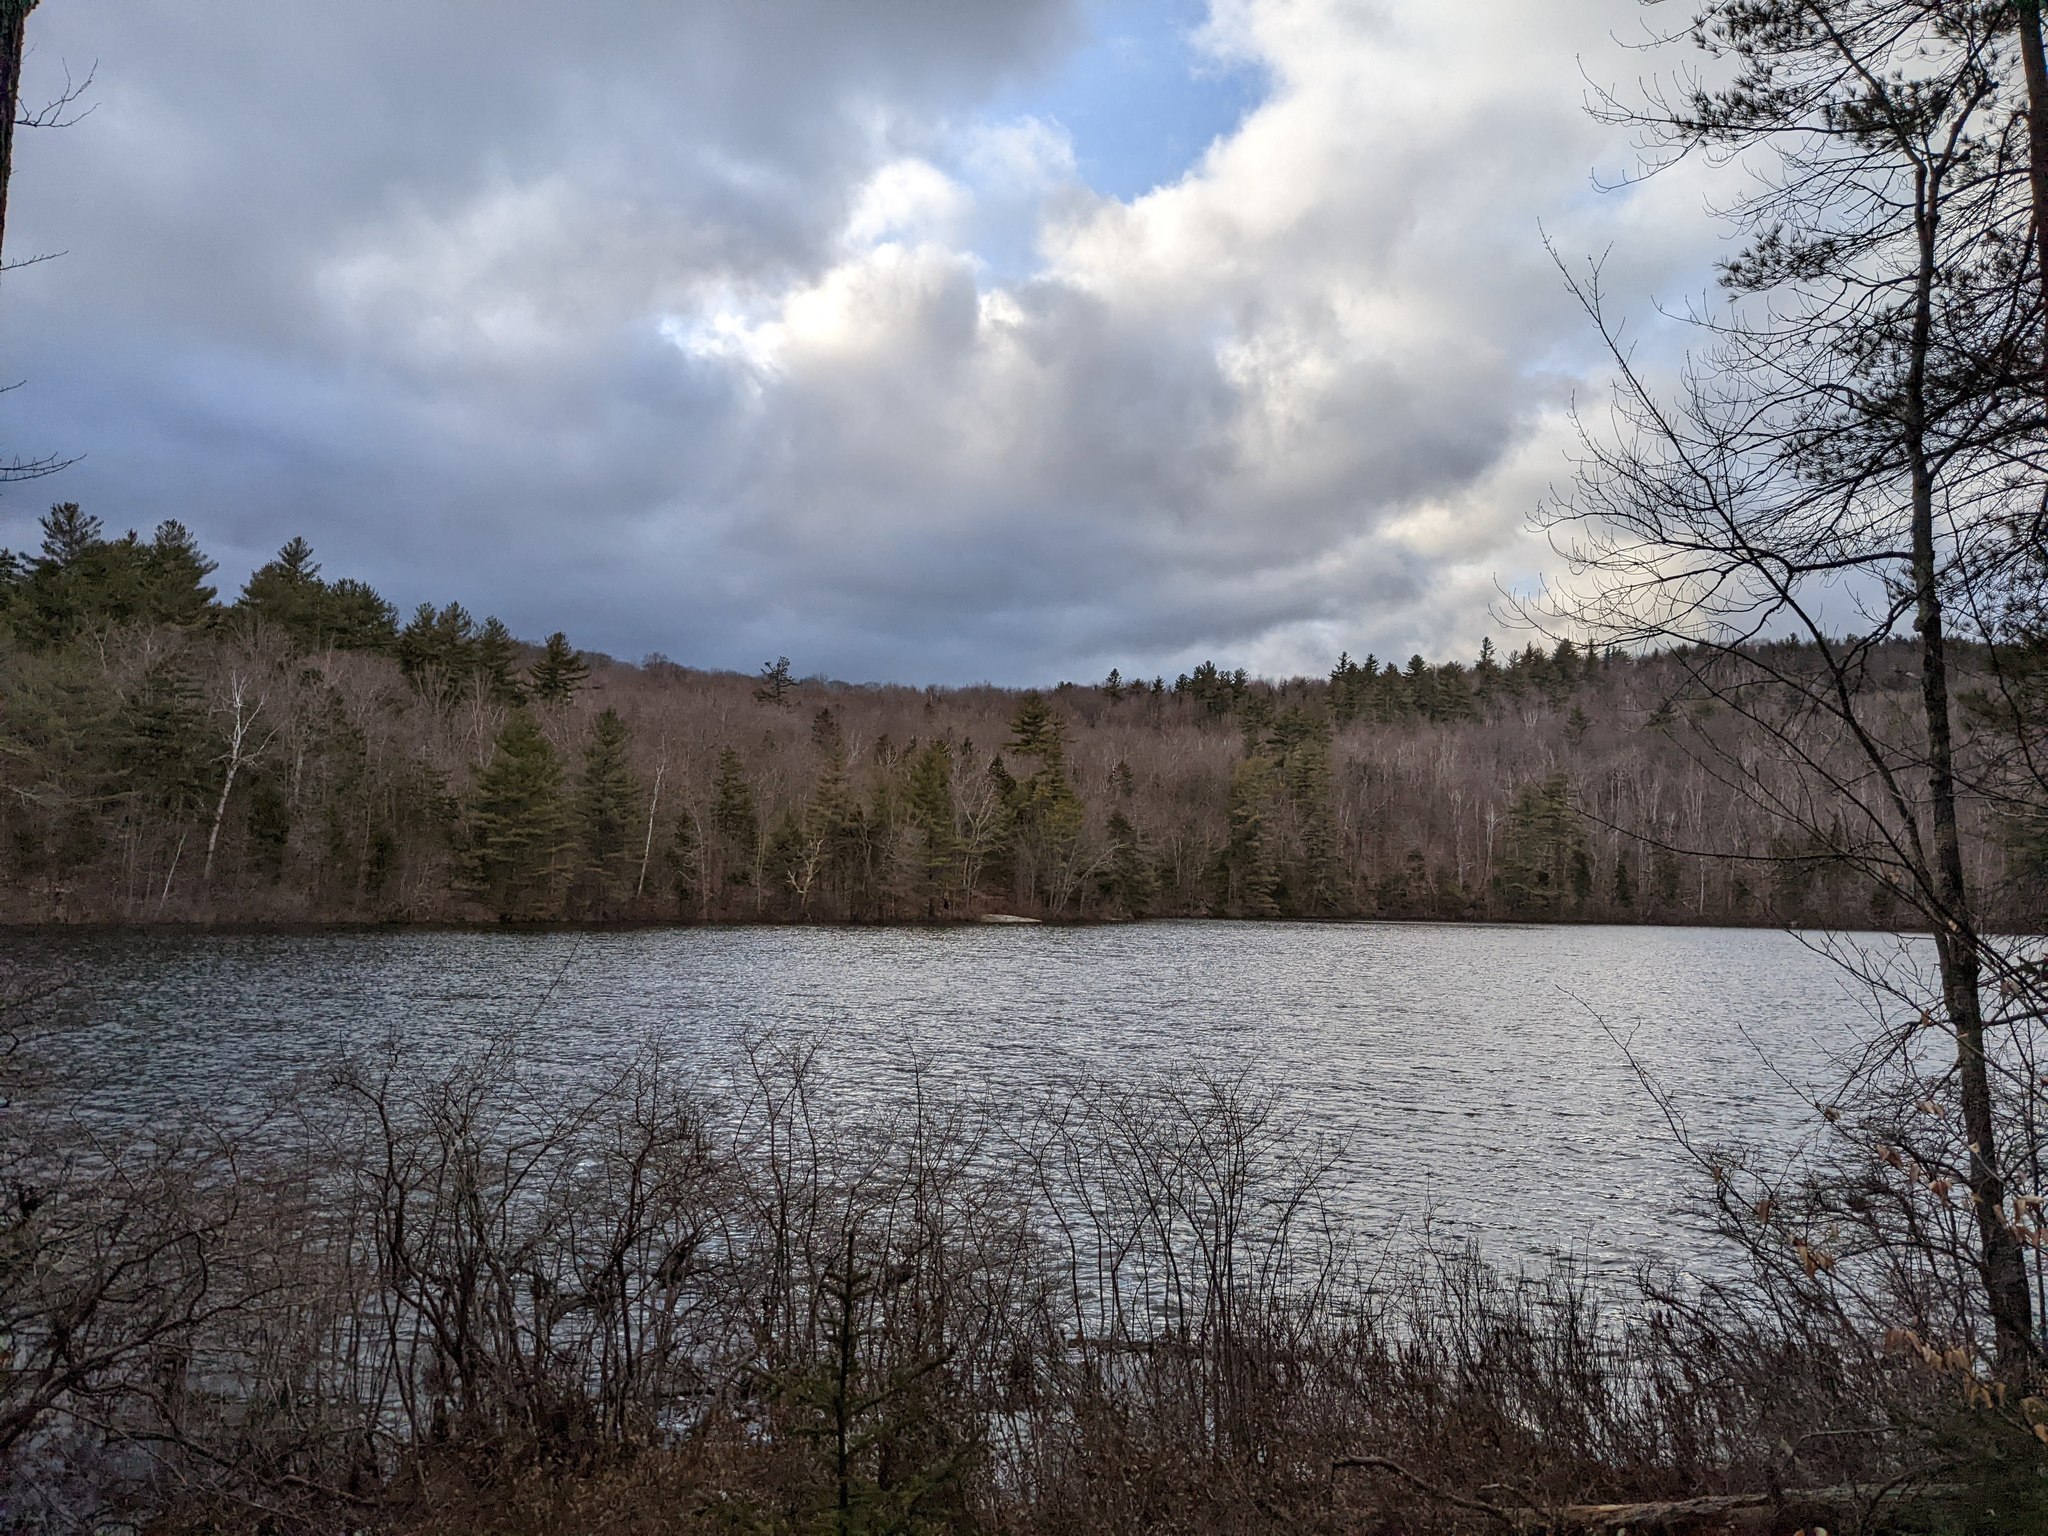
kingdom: Plantae
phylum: Tracheophyta
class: Pinopsida
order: Pinales
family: Pinaceae
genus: Pinus
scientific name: Pinus strobus
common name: Weymouth pine
